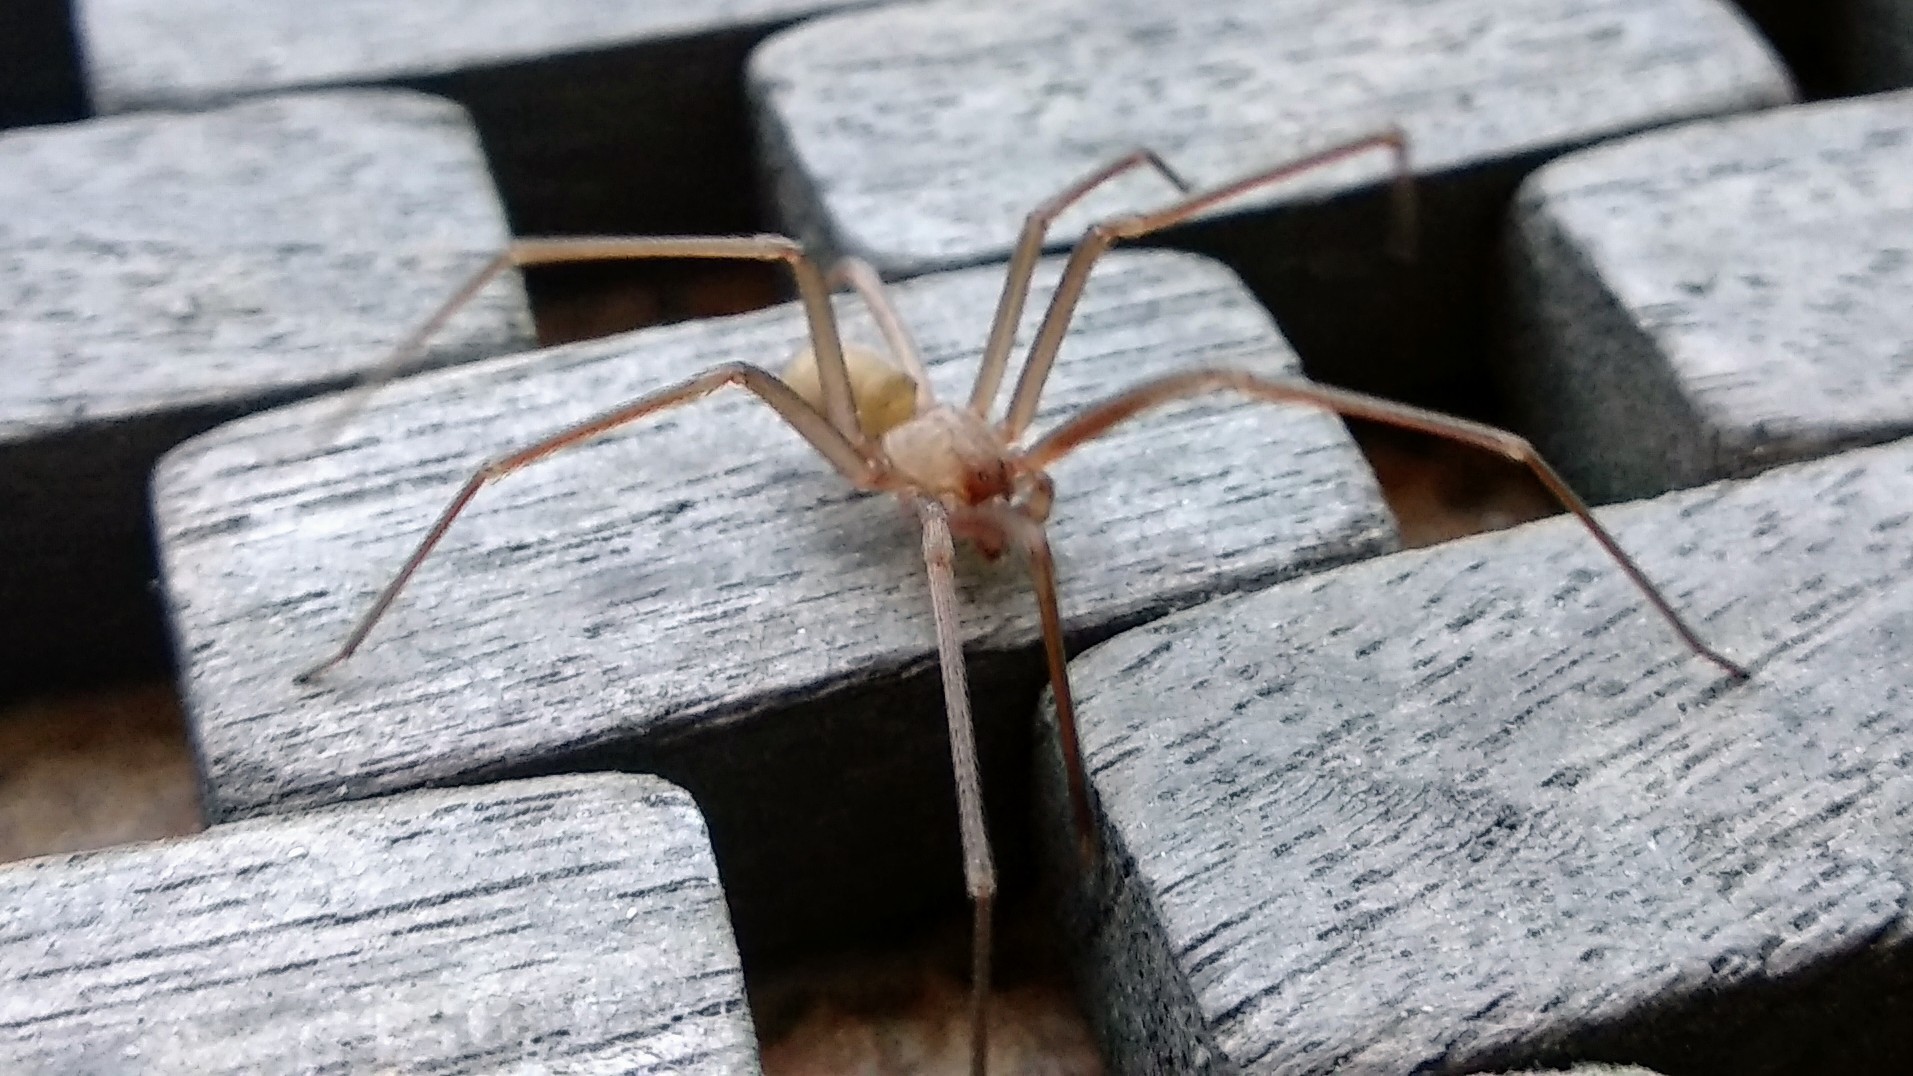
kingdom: Animalia
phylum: Arthropoda
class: Arachnida
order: Araneae
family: Sicariidae
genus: Loxosceles
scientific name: Loxosceles rufescens
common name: Mediterranean recluse spider
